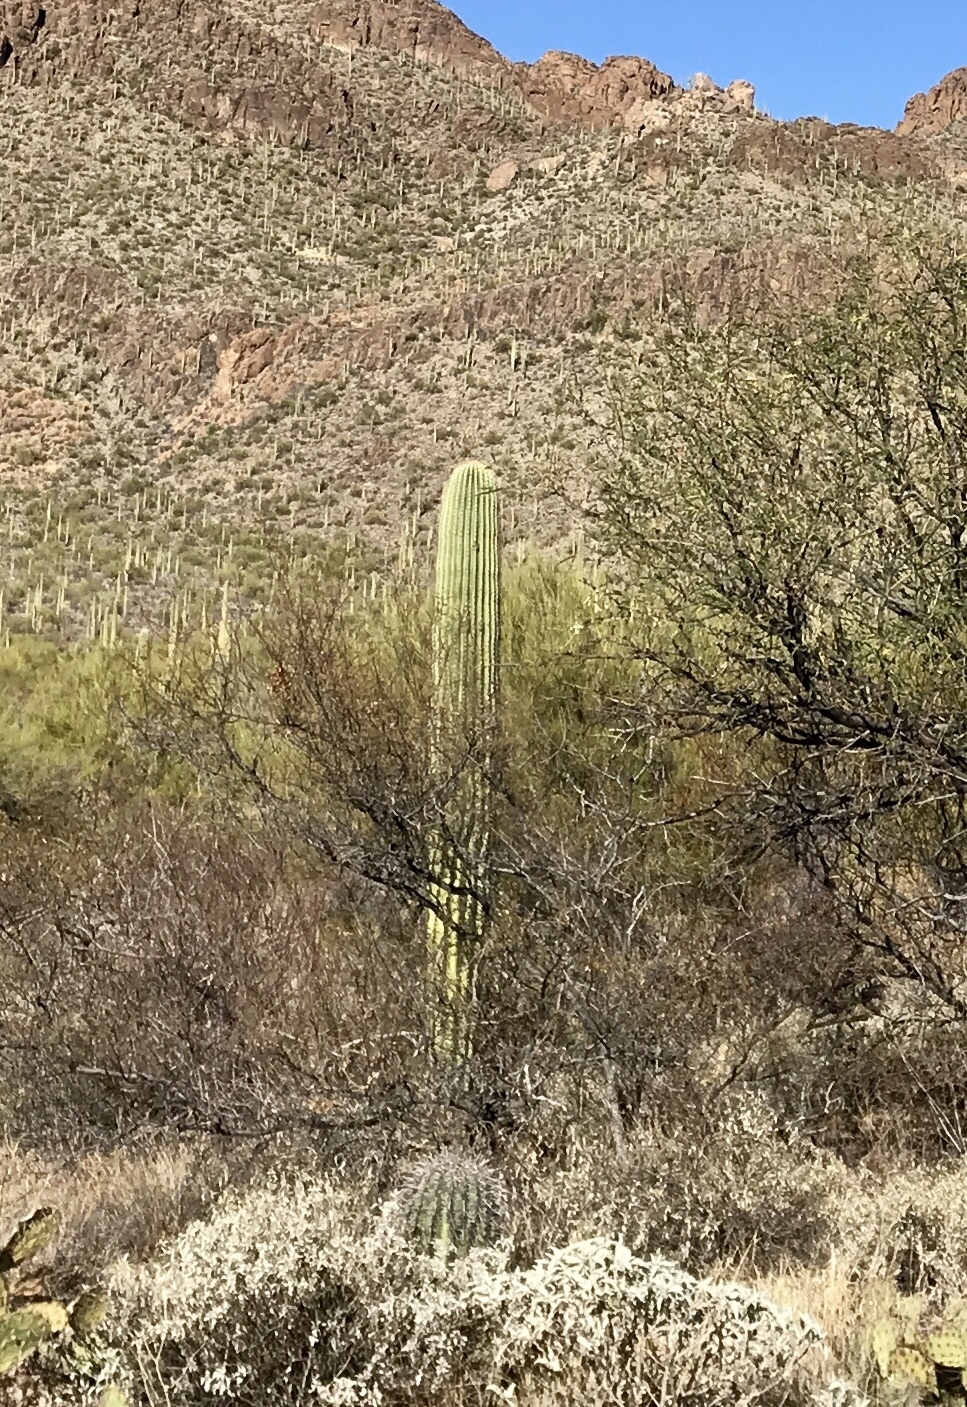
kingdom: Plantae
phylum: Tracheophyta
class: Magnoliopsida
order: Caryophyllales
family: Cactaceae
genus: Carnegiea
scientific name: Carnegiea gigantea
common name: Saguaro
